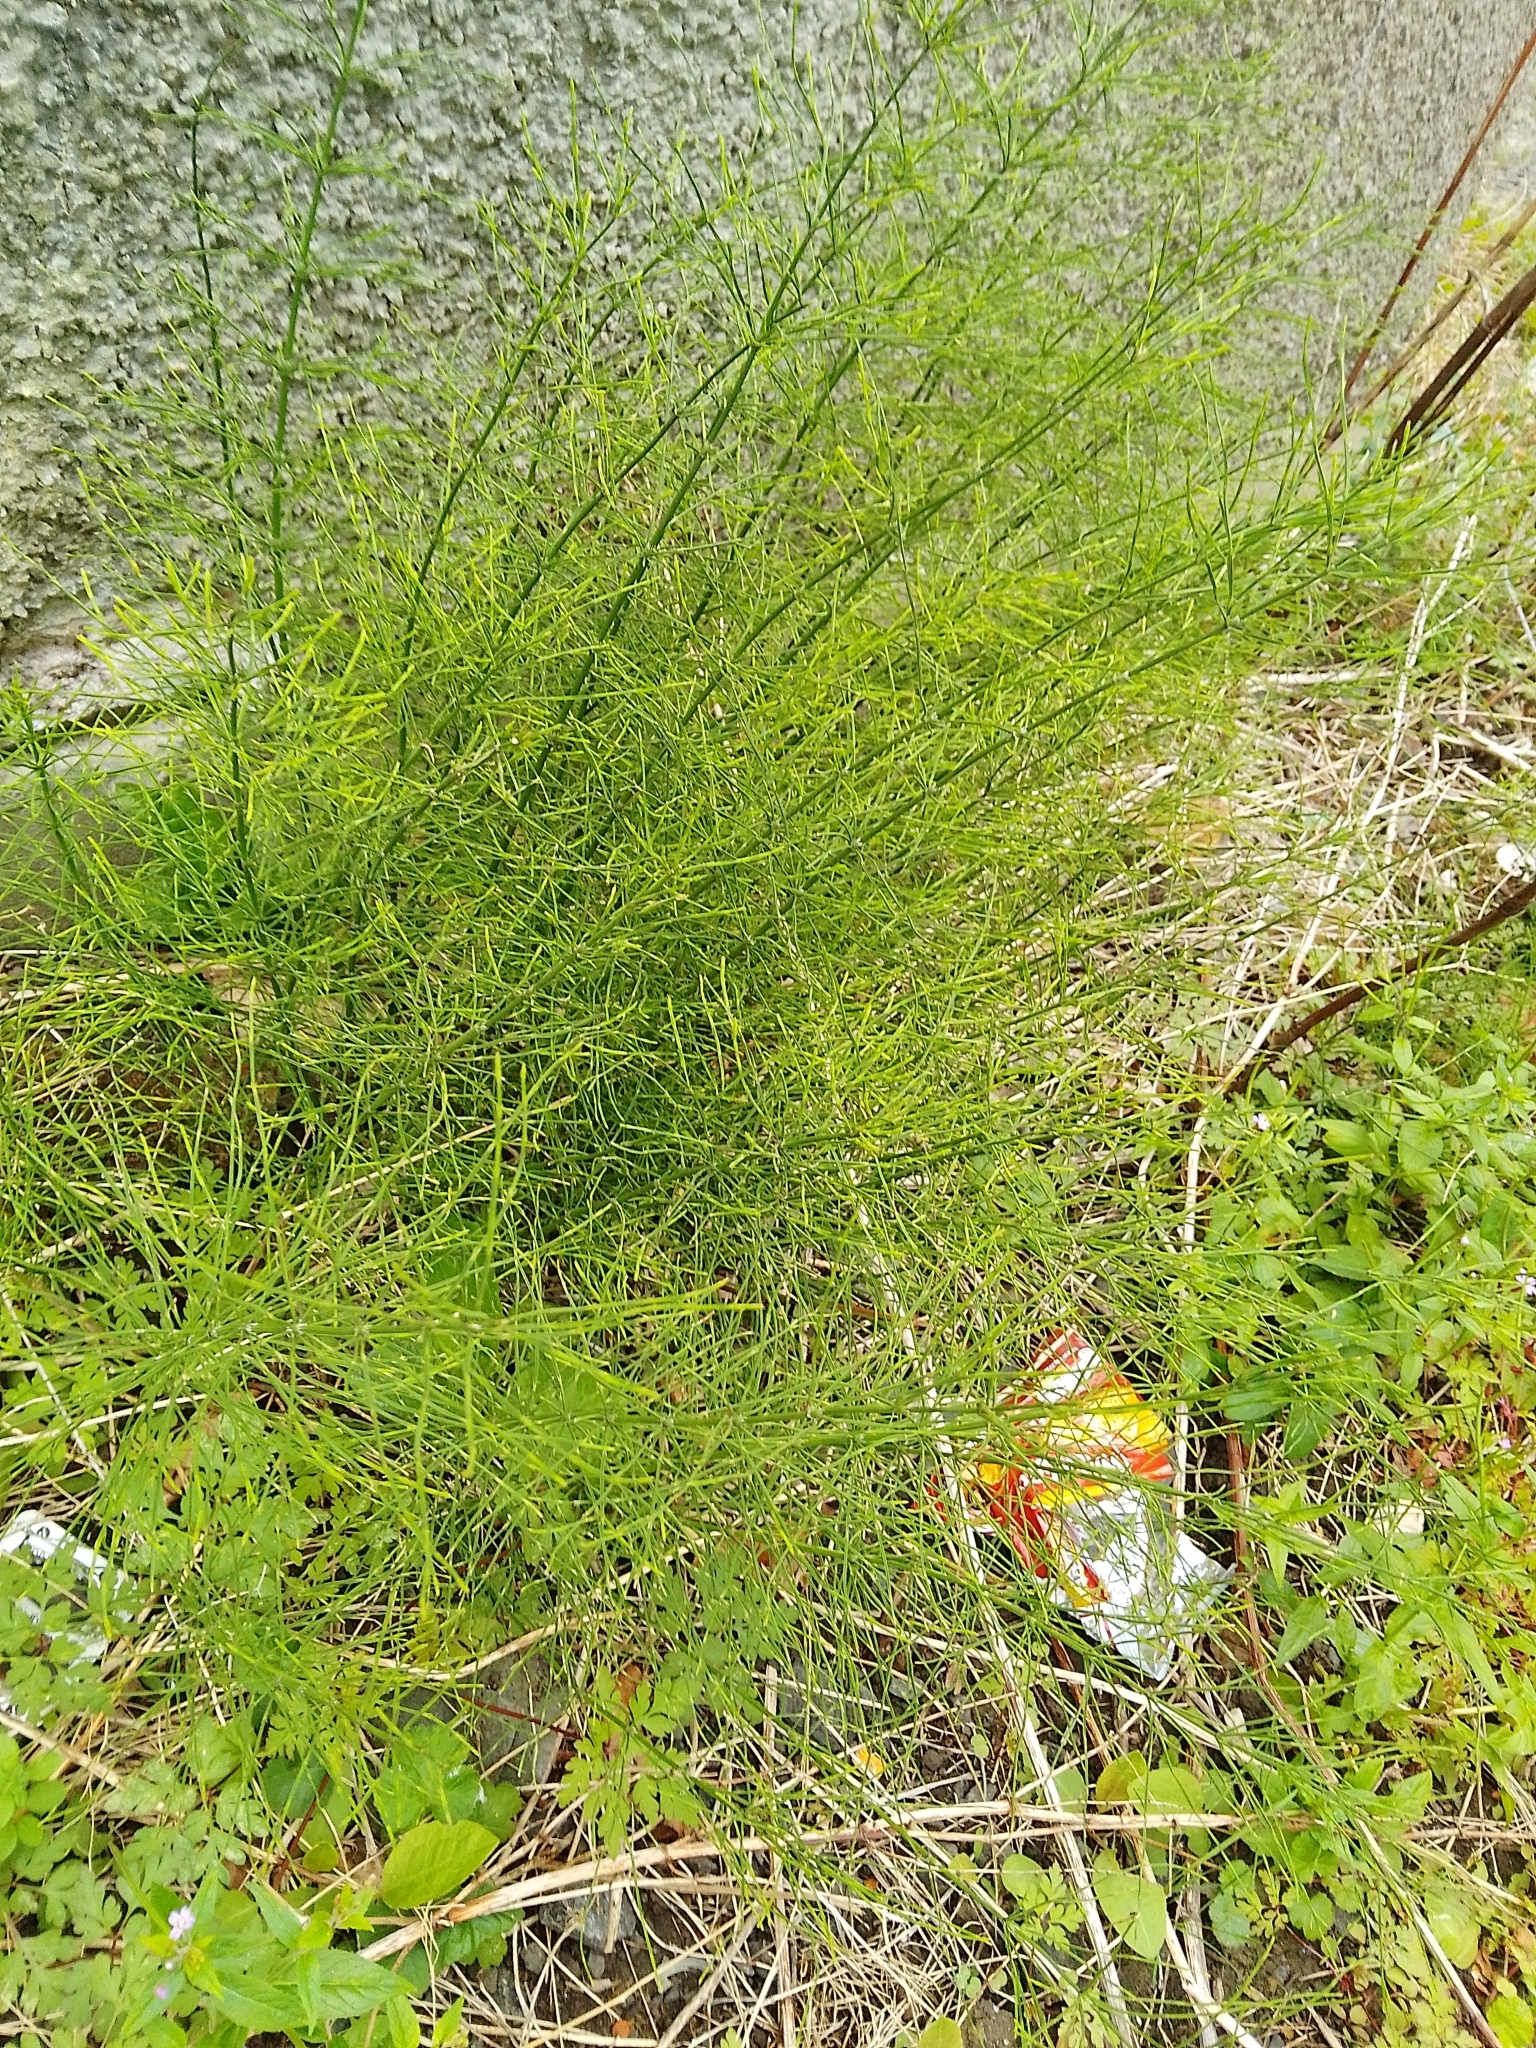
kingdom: Plantae
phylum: Tracheophyta
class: Polypodiopsida
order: Equisetales
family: Equisetaceae
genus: Equisetum
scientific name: Equisetum arvense
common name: Field horsetail
